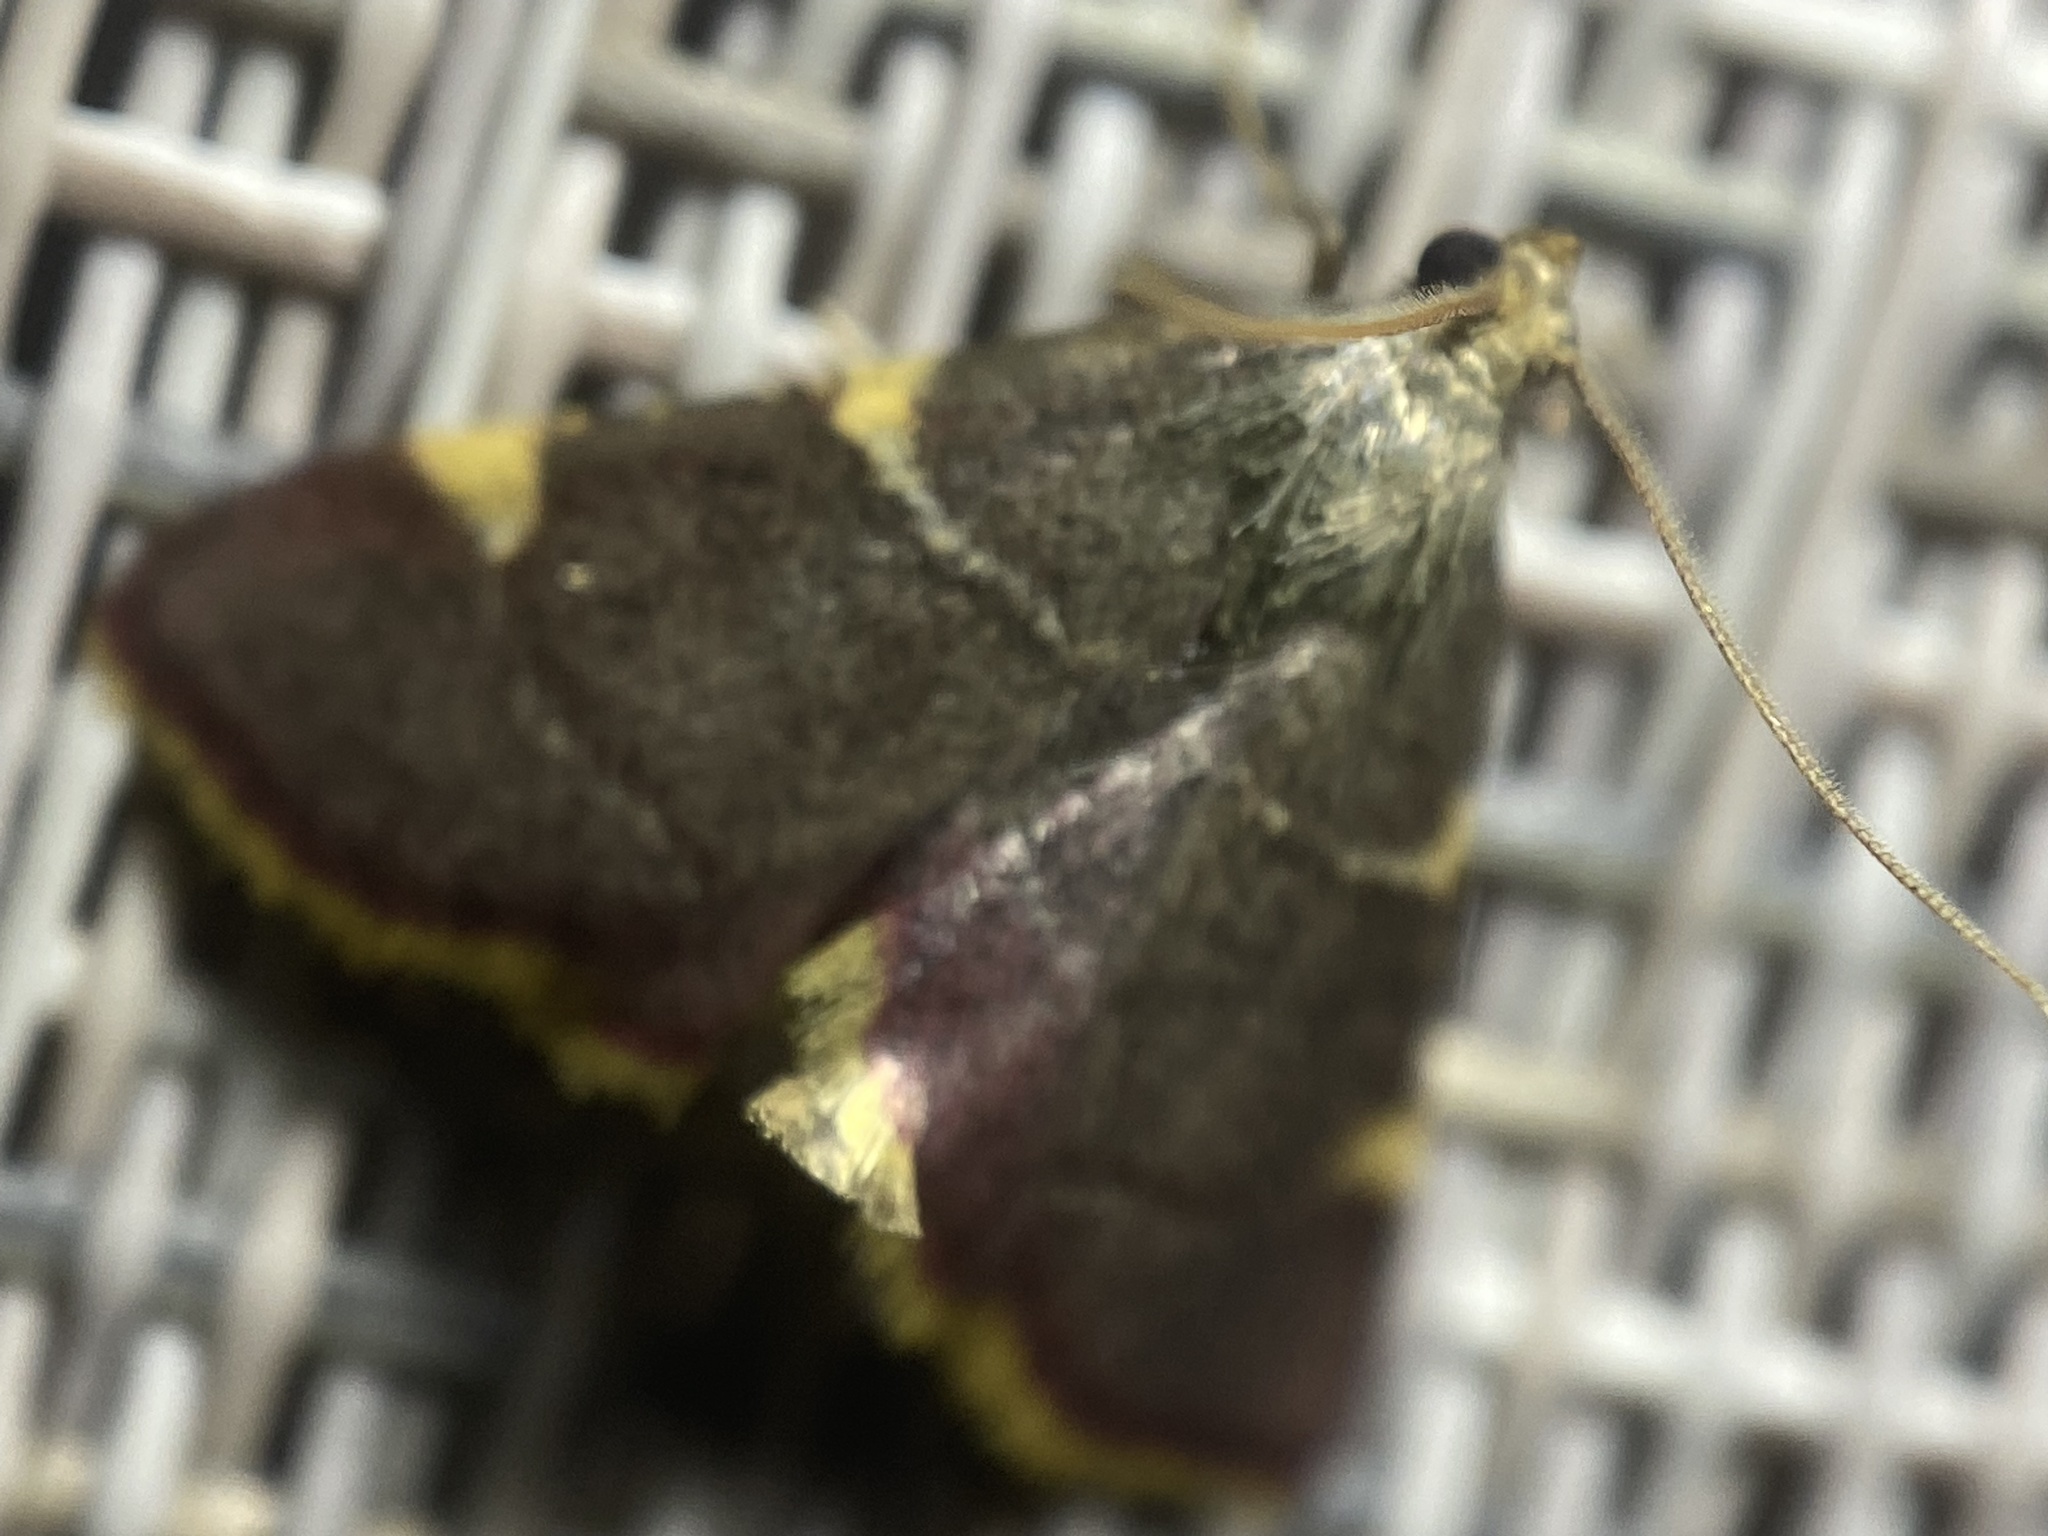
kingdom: Animalia
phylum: Arthropoda
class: Insecta
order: Lepidoptera
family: Pyralidae
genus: Hypsopygia
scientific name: Hypsopygia olinalis
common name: Yellow-fringed dolichomia moth
